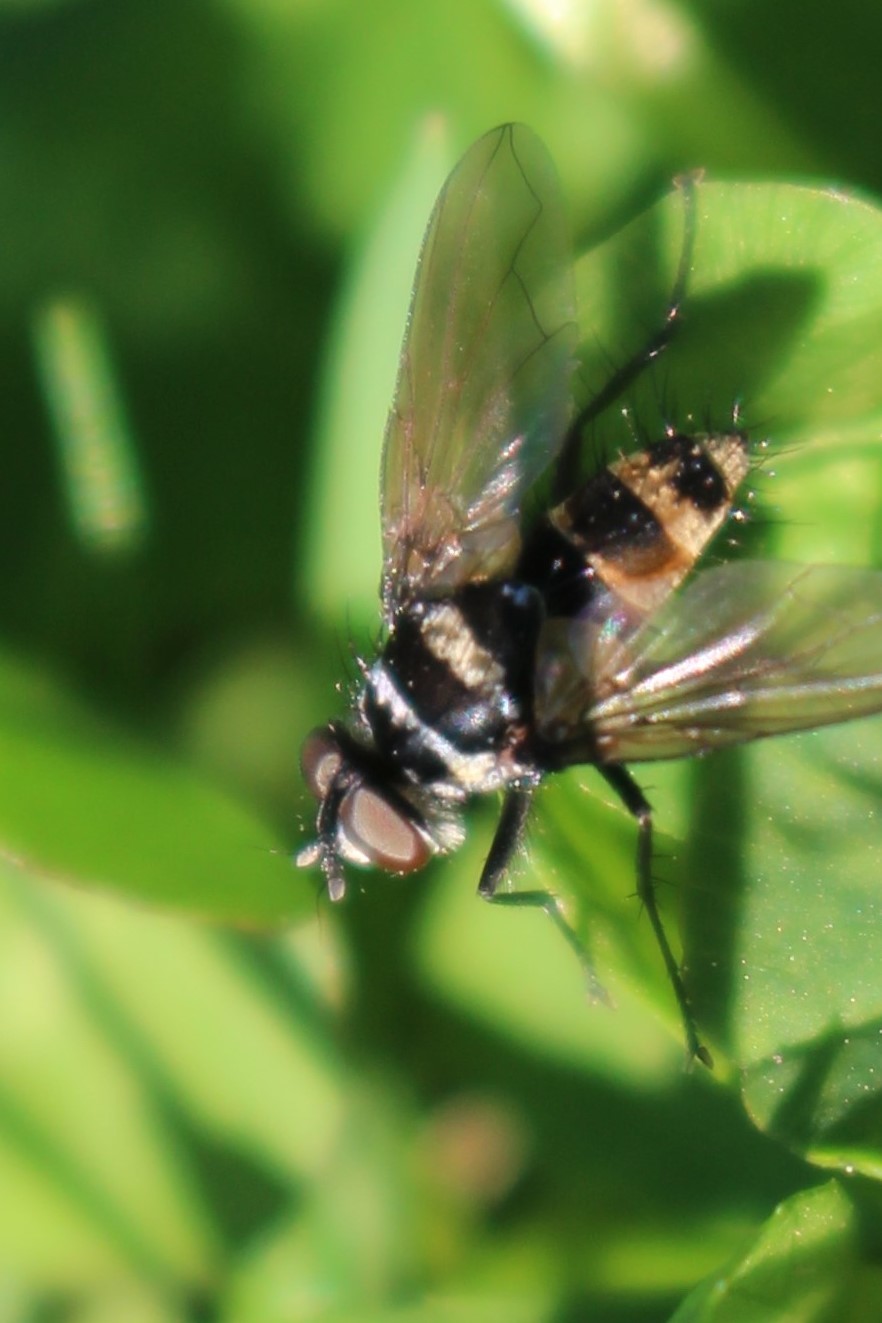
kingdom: Animalia
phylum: Arthropoda
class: Insecta
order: Diptera
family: Tachinidae
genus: Trigonospila
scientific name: Trigonospila brevifacies
